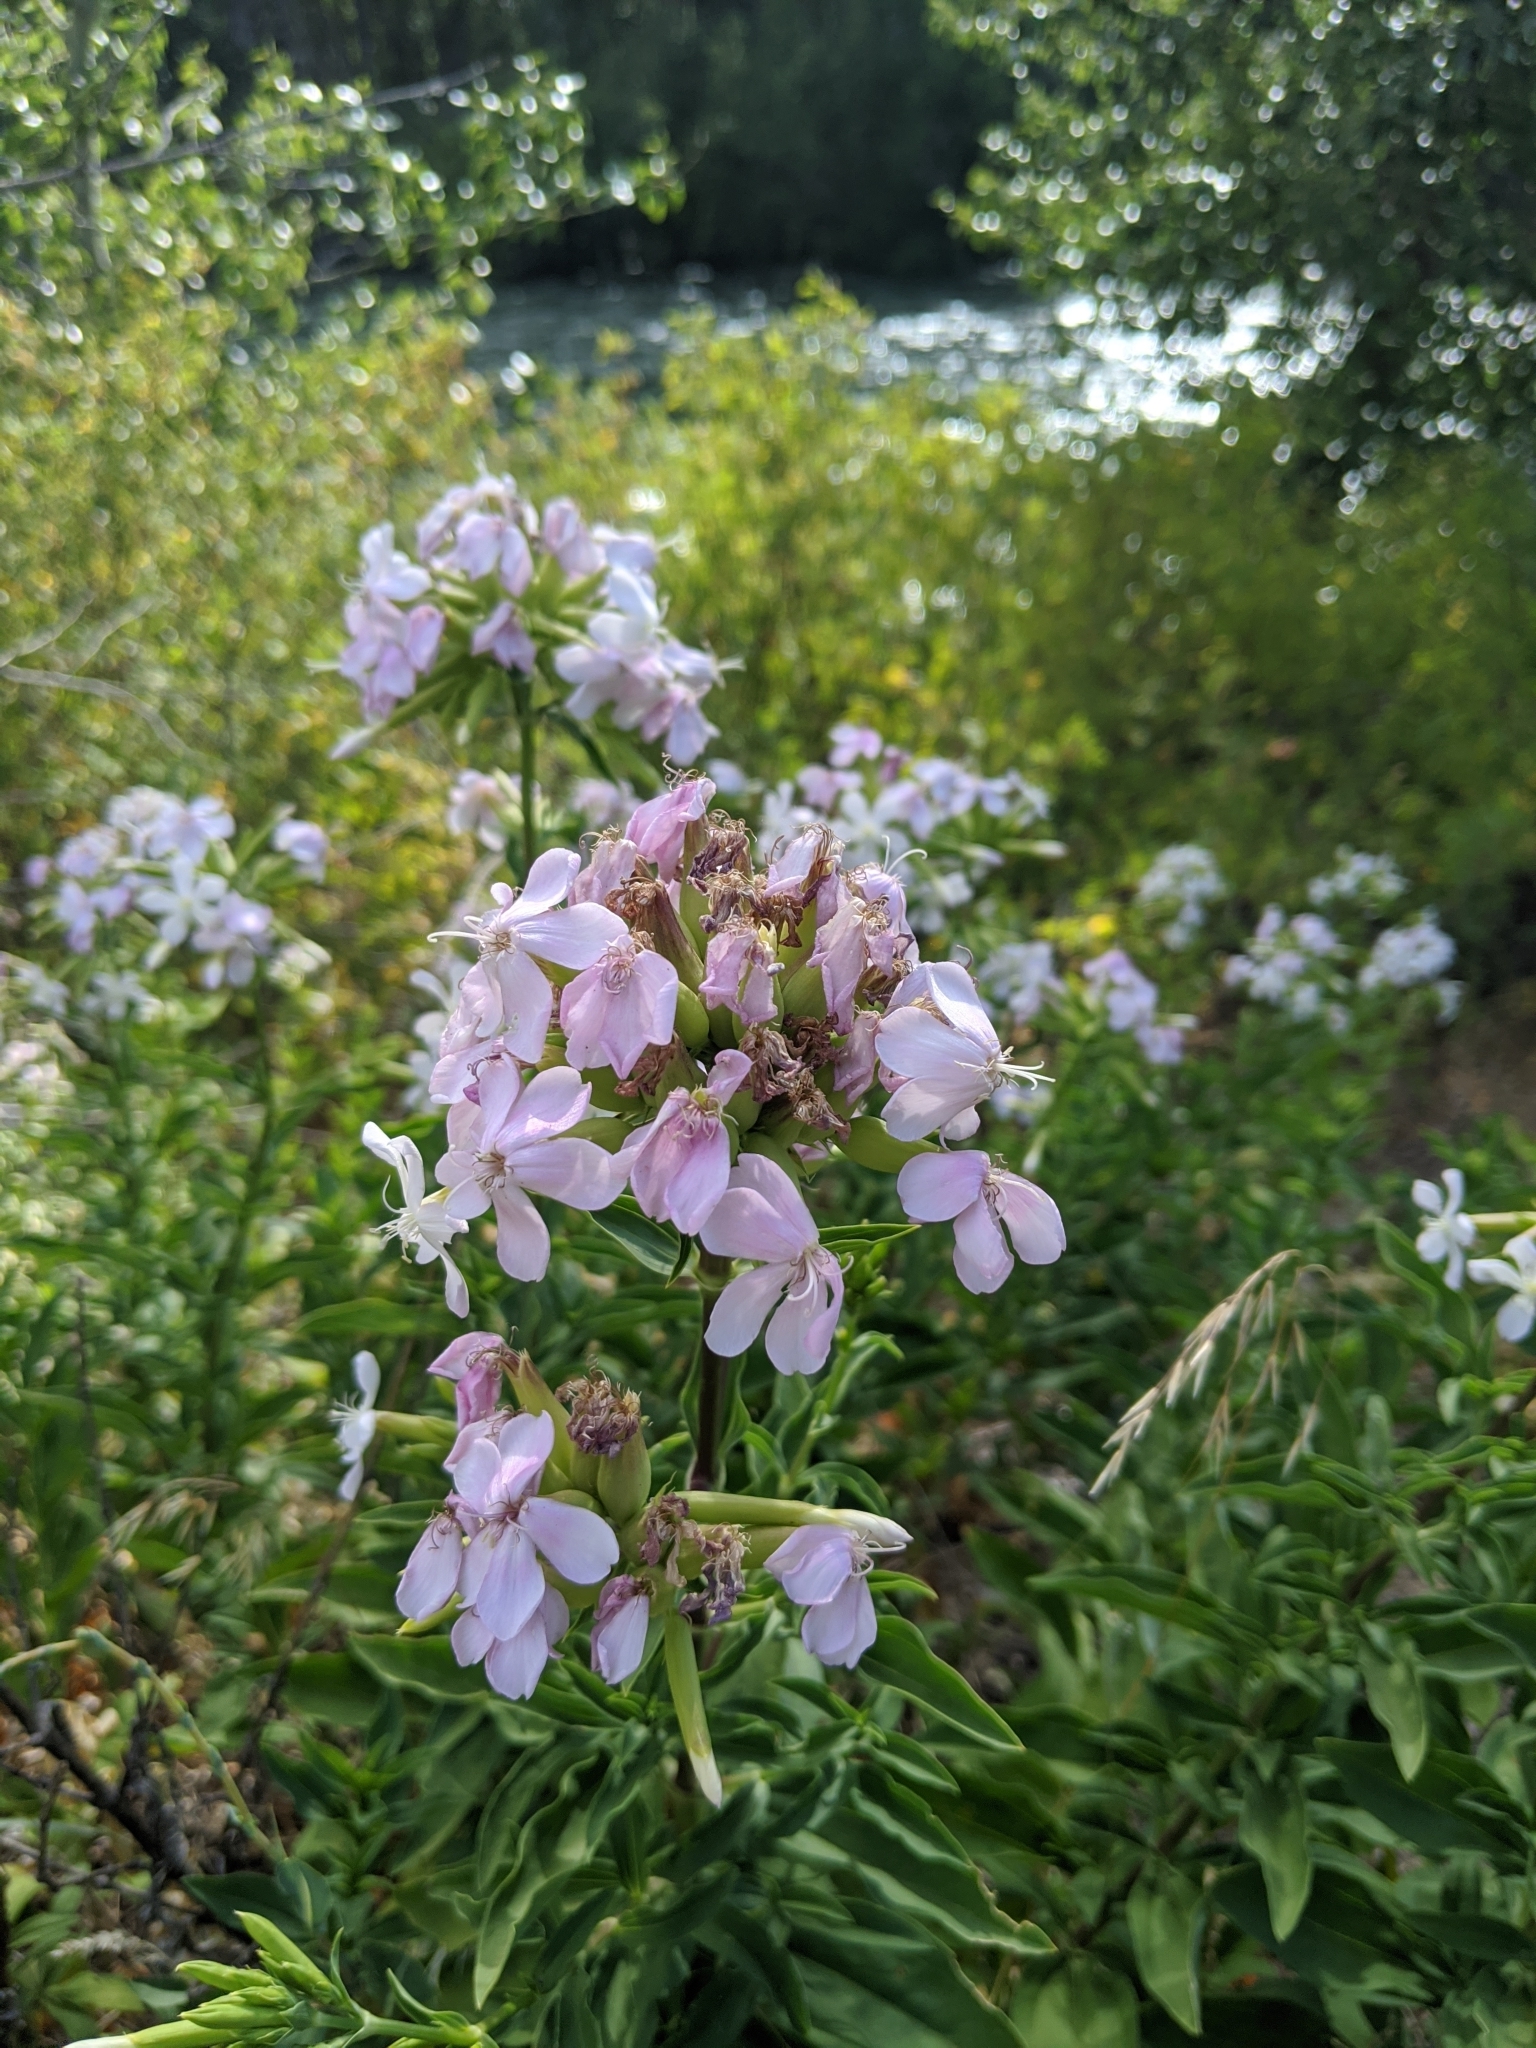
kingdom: Plantae
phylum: Tracheophyta
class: Magnoliopsida
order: Caryophyllales
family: Caryophyllaceae
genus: Saponaria
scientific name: Saponaria officinalis
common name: Soapwort
